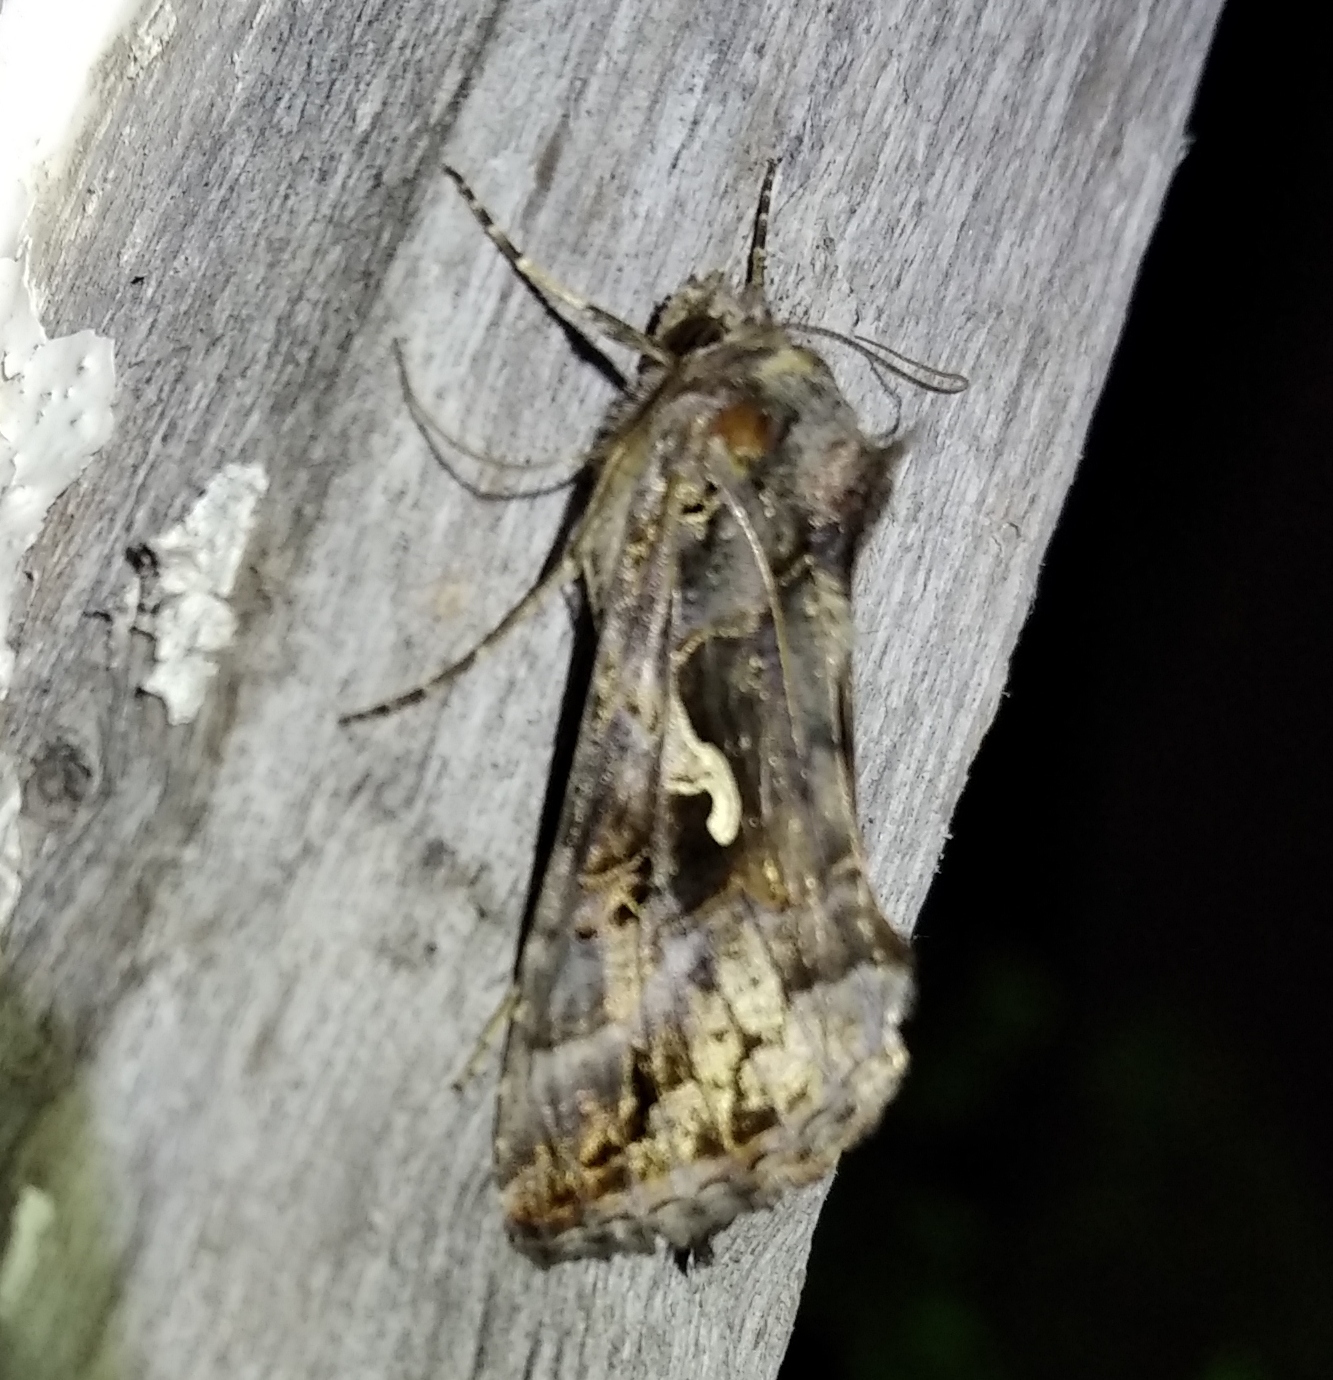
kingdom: Animalia
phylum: Arthropoda
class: Insecta
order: Lepidoptera
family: Noctuidae
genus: Autographa
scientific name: Autographa gamma
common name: Silver y
